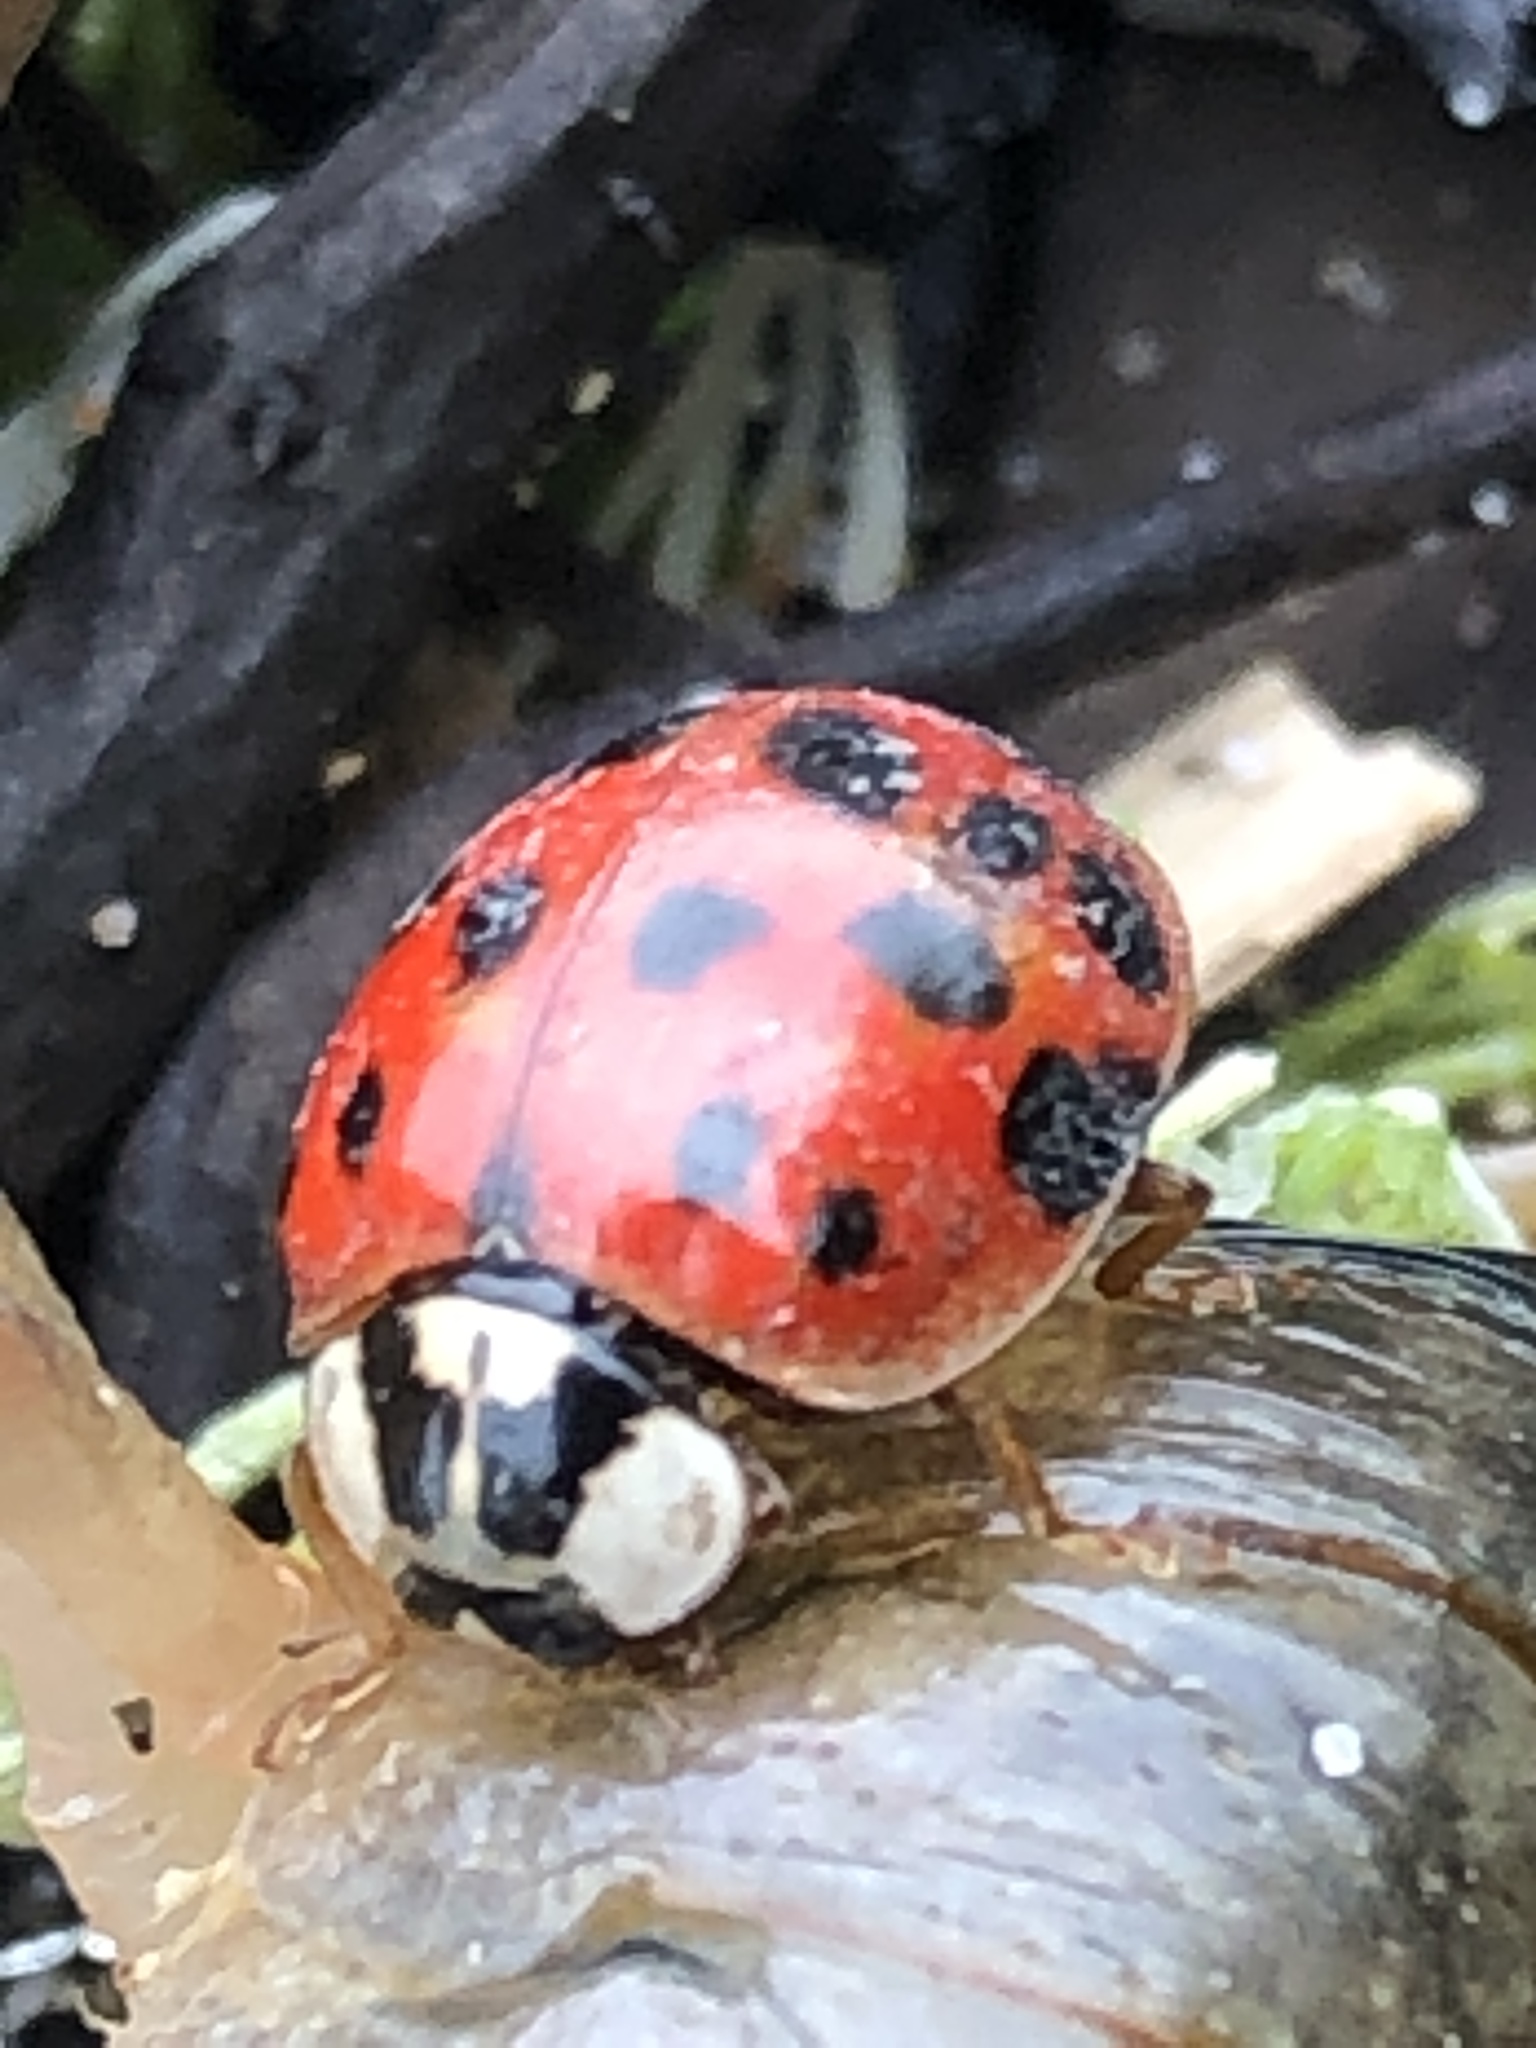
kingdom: Animalia
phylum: Arthropoda
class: Insecta
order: Coleoptera
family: Coccinellidae
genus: Harmonia
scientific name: Harmonia axyridis
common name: Harlequin ladybird
